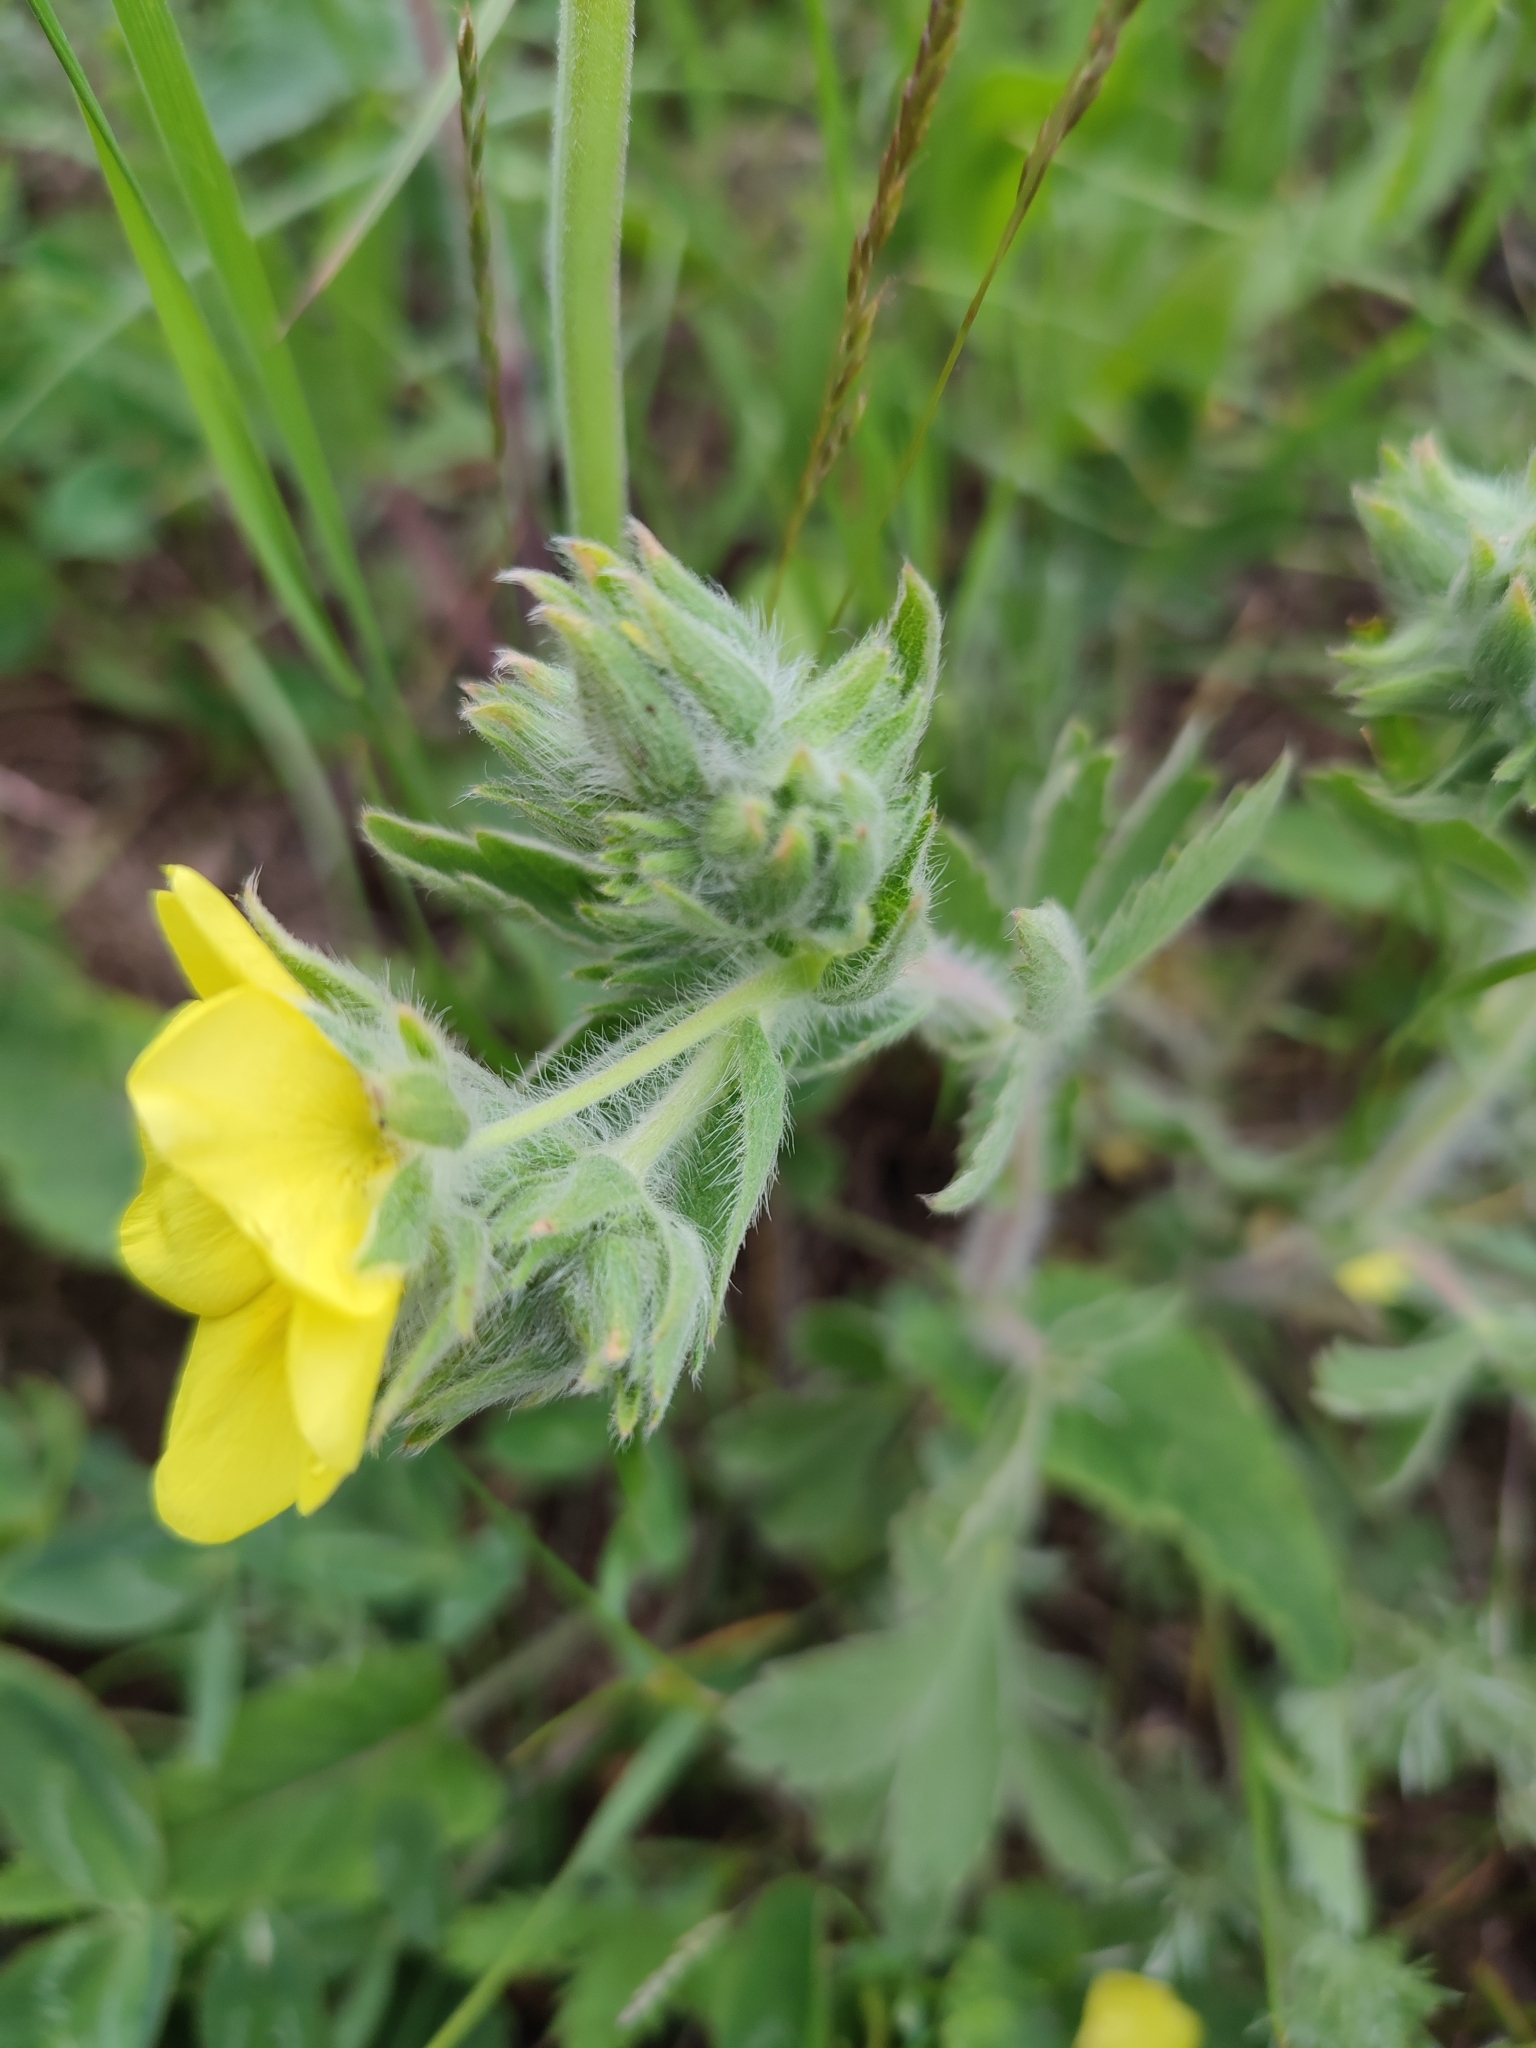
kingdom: Plantae
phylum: Tracheophyta
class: Magnoliopsida
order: Rosales
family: Rosaceae
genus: Potentilla
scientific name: Potentilla astracanica
